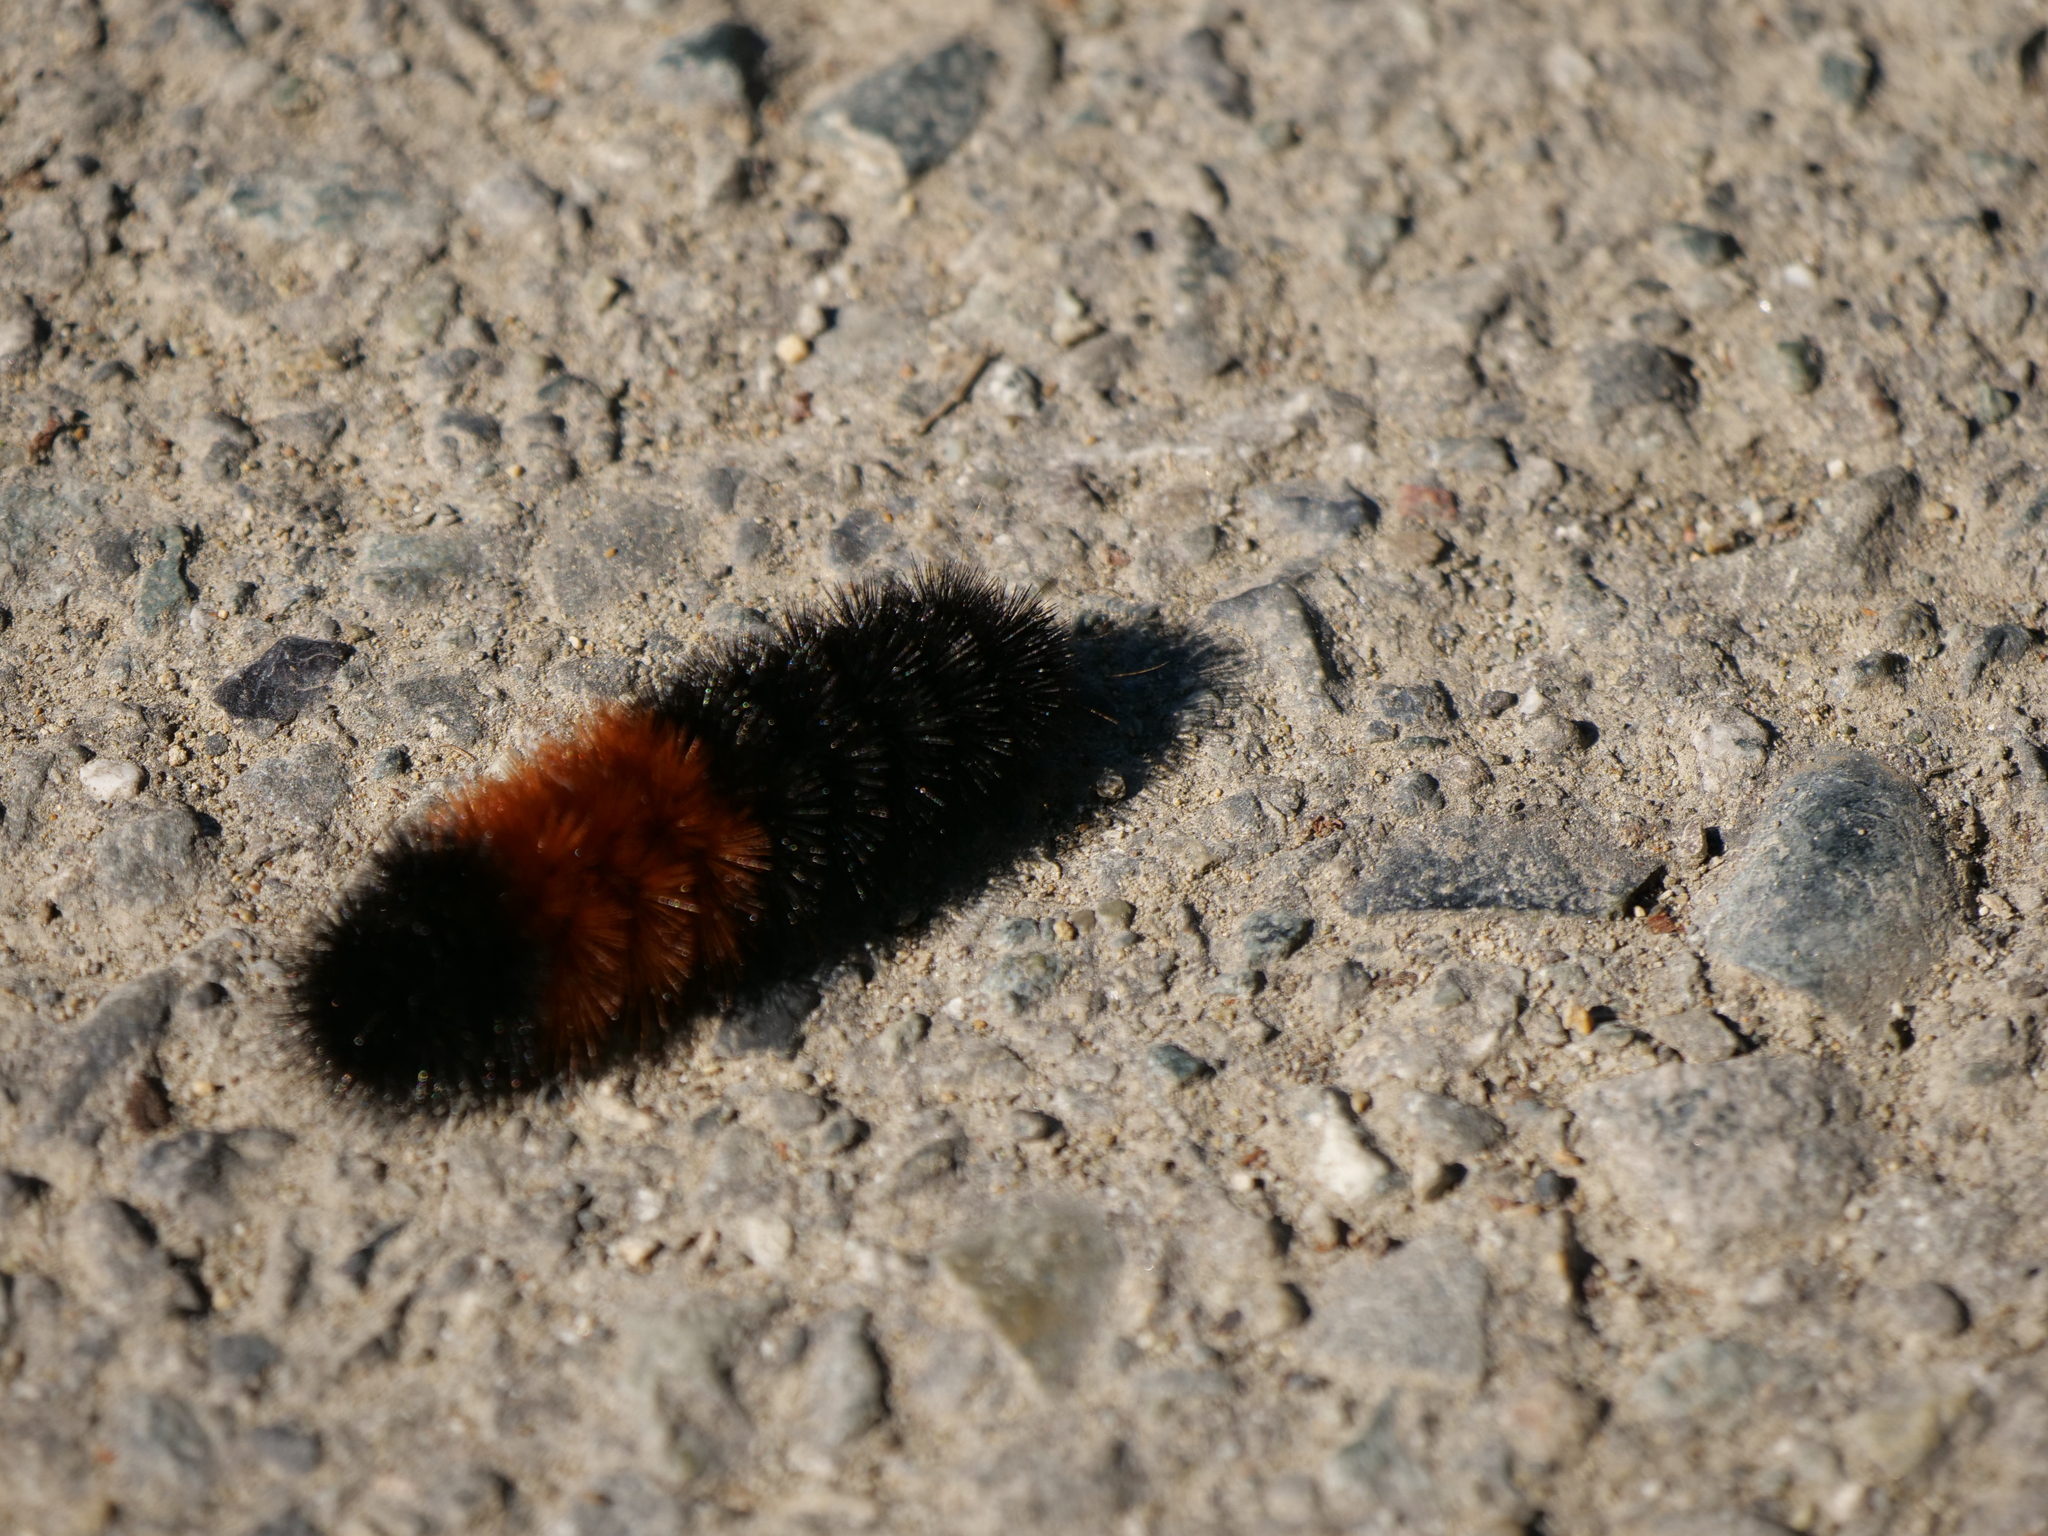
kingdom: Animalia
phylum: Arthropoda
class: Insecta
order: Lepidoptera
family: Erebidae
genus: Pyrrharctia
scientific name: Pyrrharctia isabella
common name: Isabella tiger moth
